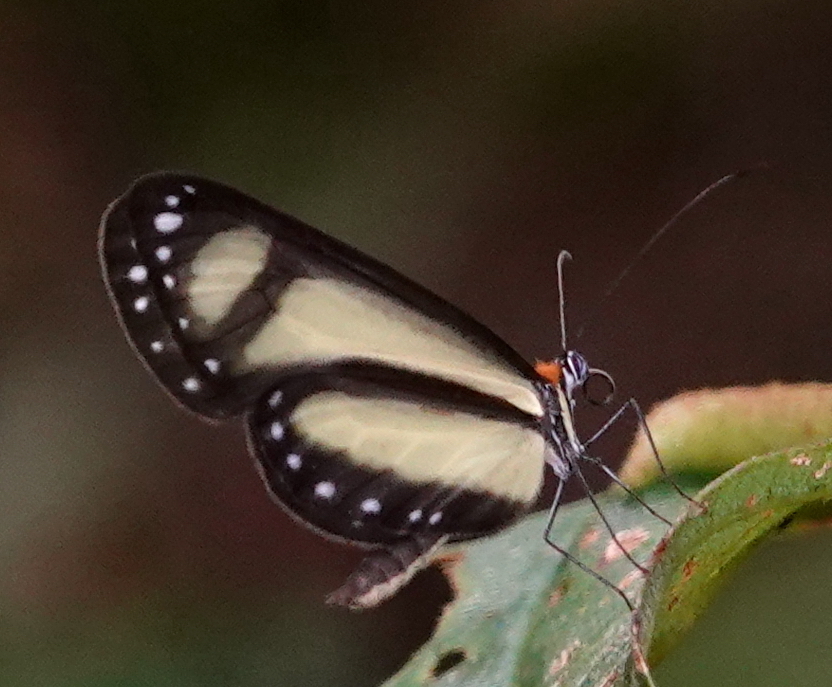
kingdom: Animalia
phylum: Arthropoda
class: Insecta
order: Lepidoptera
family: Nymphalidae
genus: Scada
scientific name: Scada zibia
